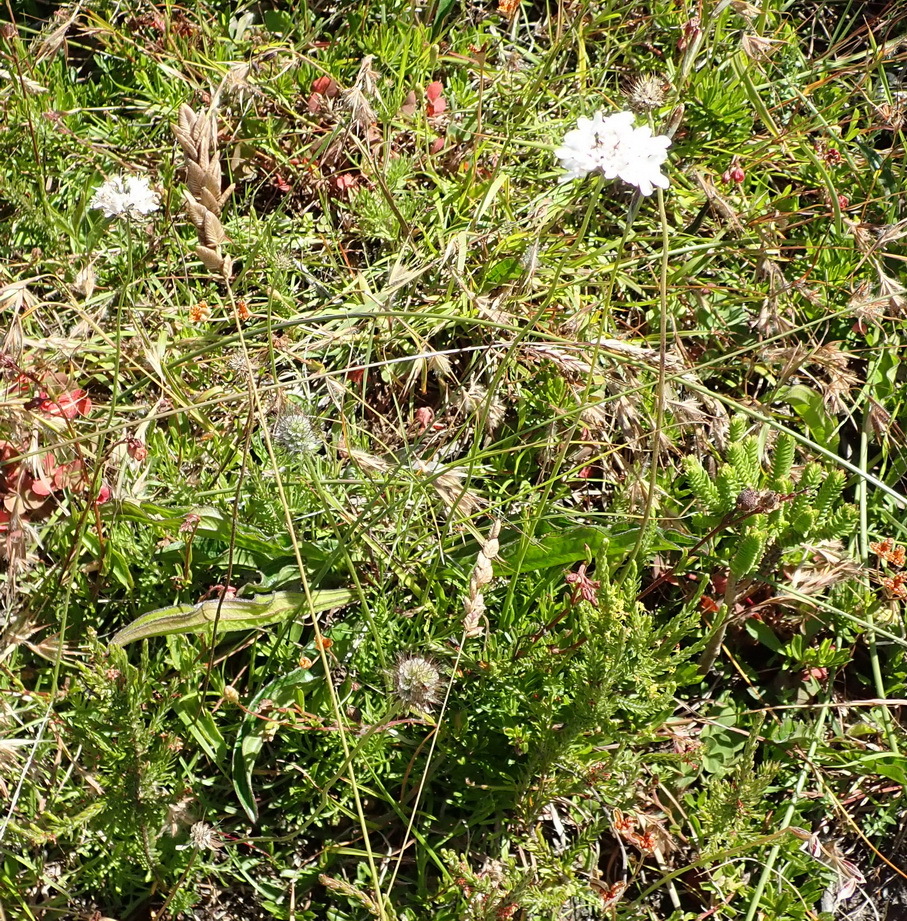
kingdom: Plantae
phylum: Tracheophyta
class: Magnoliopsida
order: Dipsacales
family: Caprifoliaceae
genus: Scabiosa
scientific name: Scabiosa columbaria
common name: Small scabious
